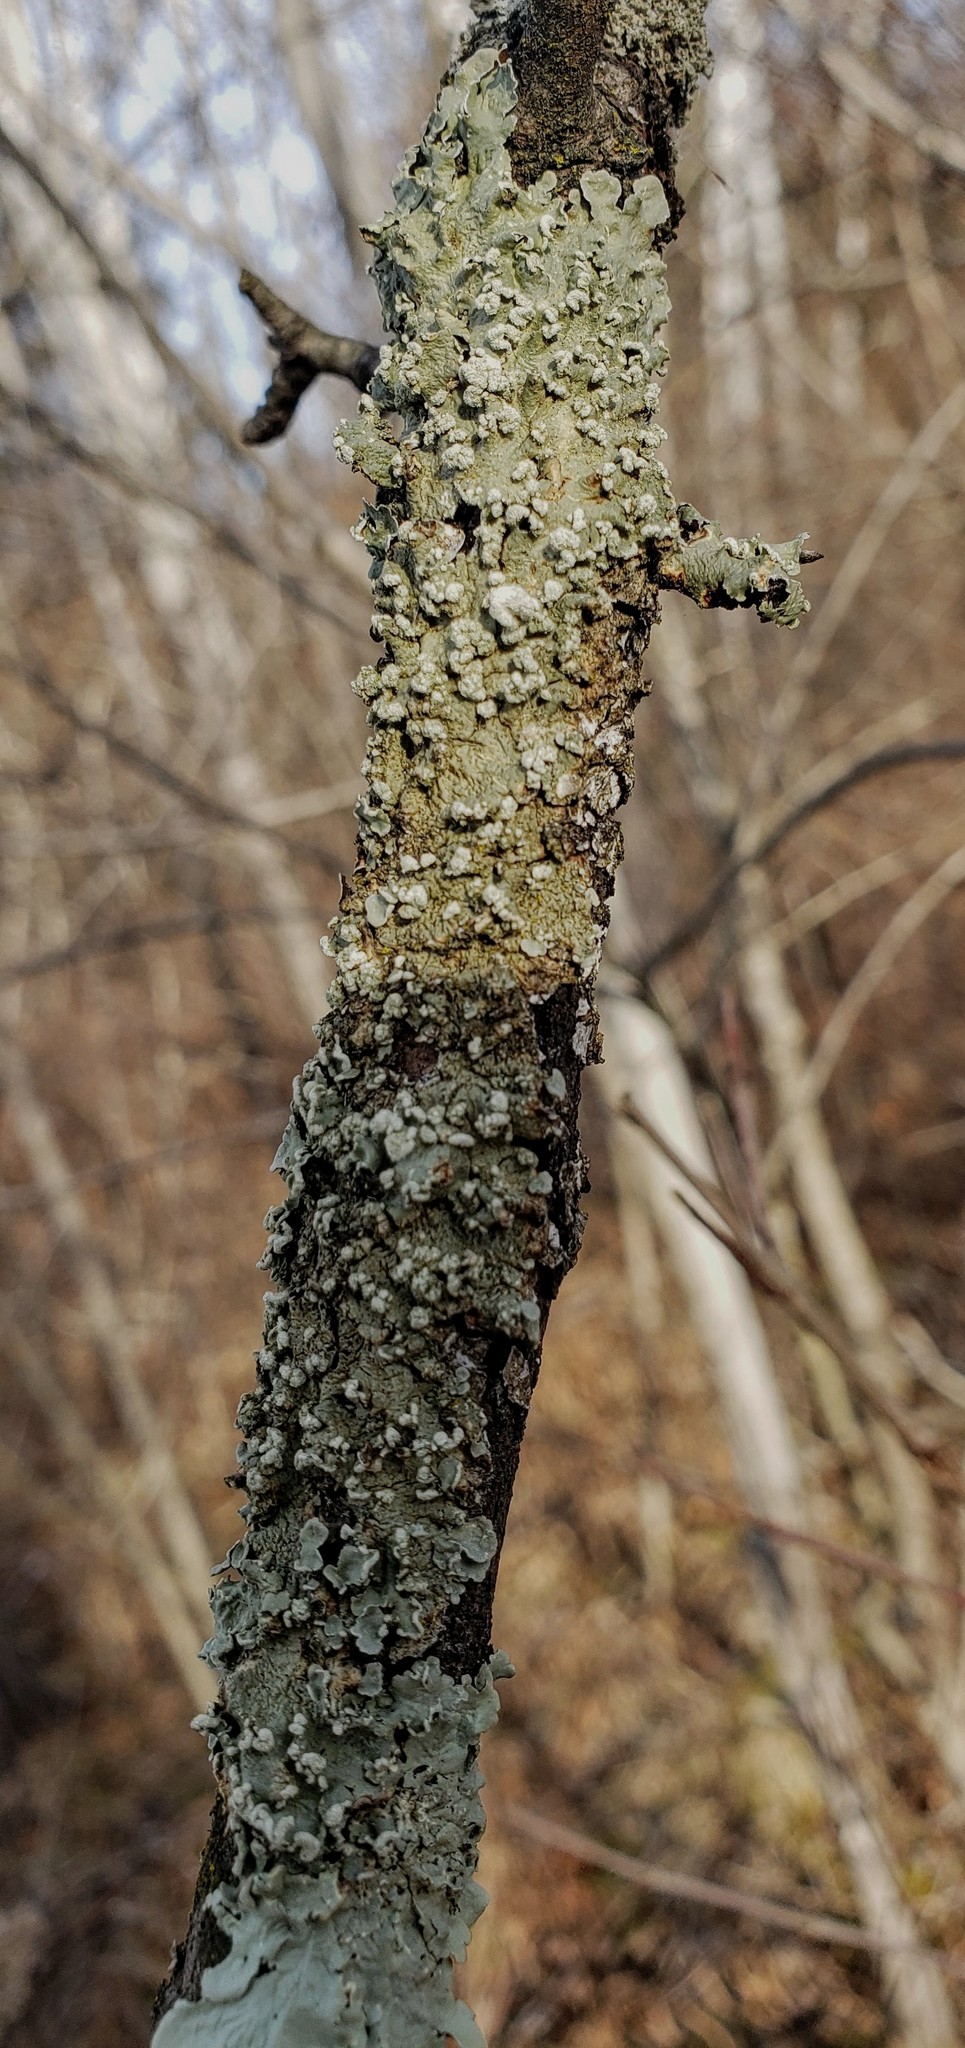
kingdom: Fungi
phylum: Ascomycota
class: Lecanoromycetes
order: Lecanorales
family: Parmeliaceae
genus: Flavopunctelia
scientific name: Flavopunctelia soredica
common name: Powder-edged speckled greenshield
